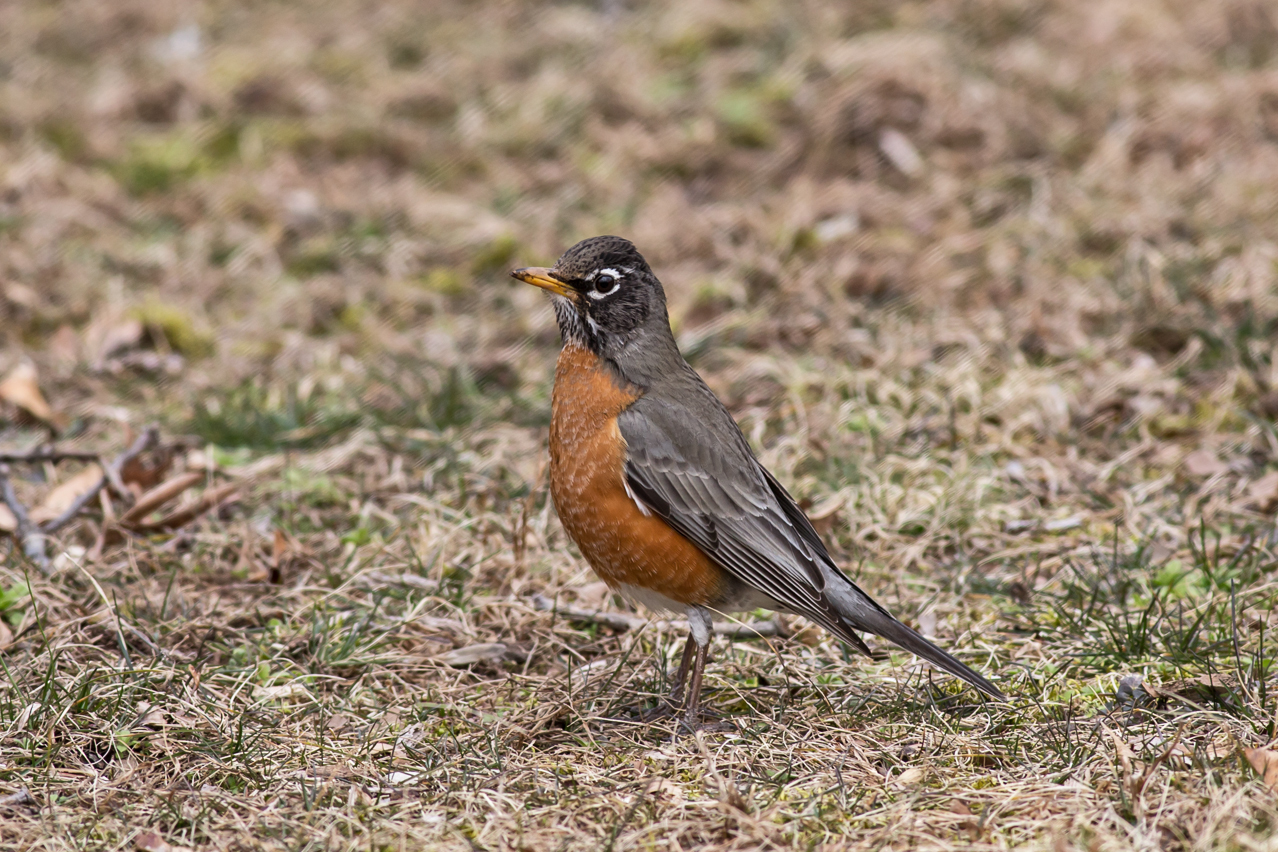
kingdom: Animalia
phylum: Chordata
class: Aves
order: Passeriformes
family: Turdidae
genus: Turdus
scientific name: Turdus migratorius
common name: American robin
